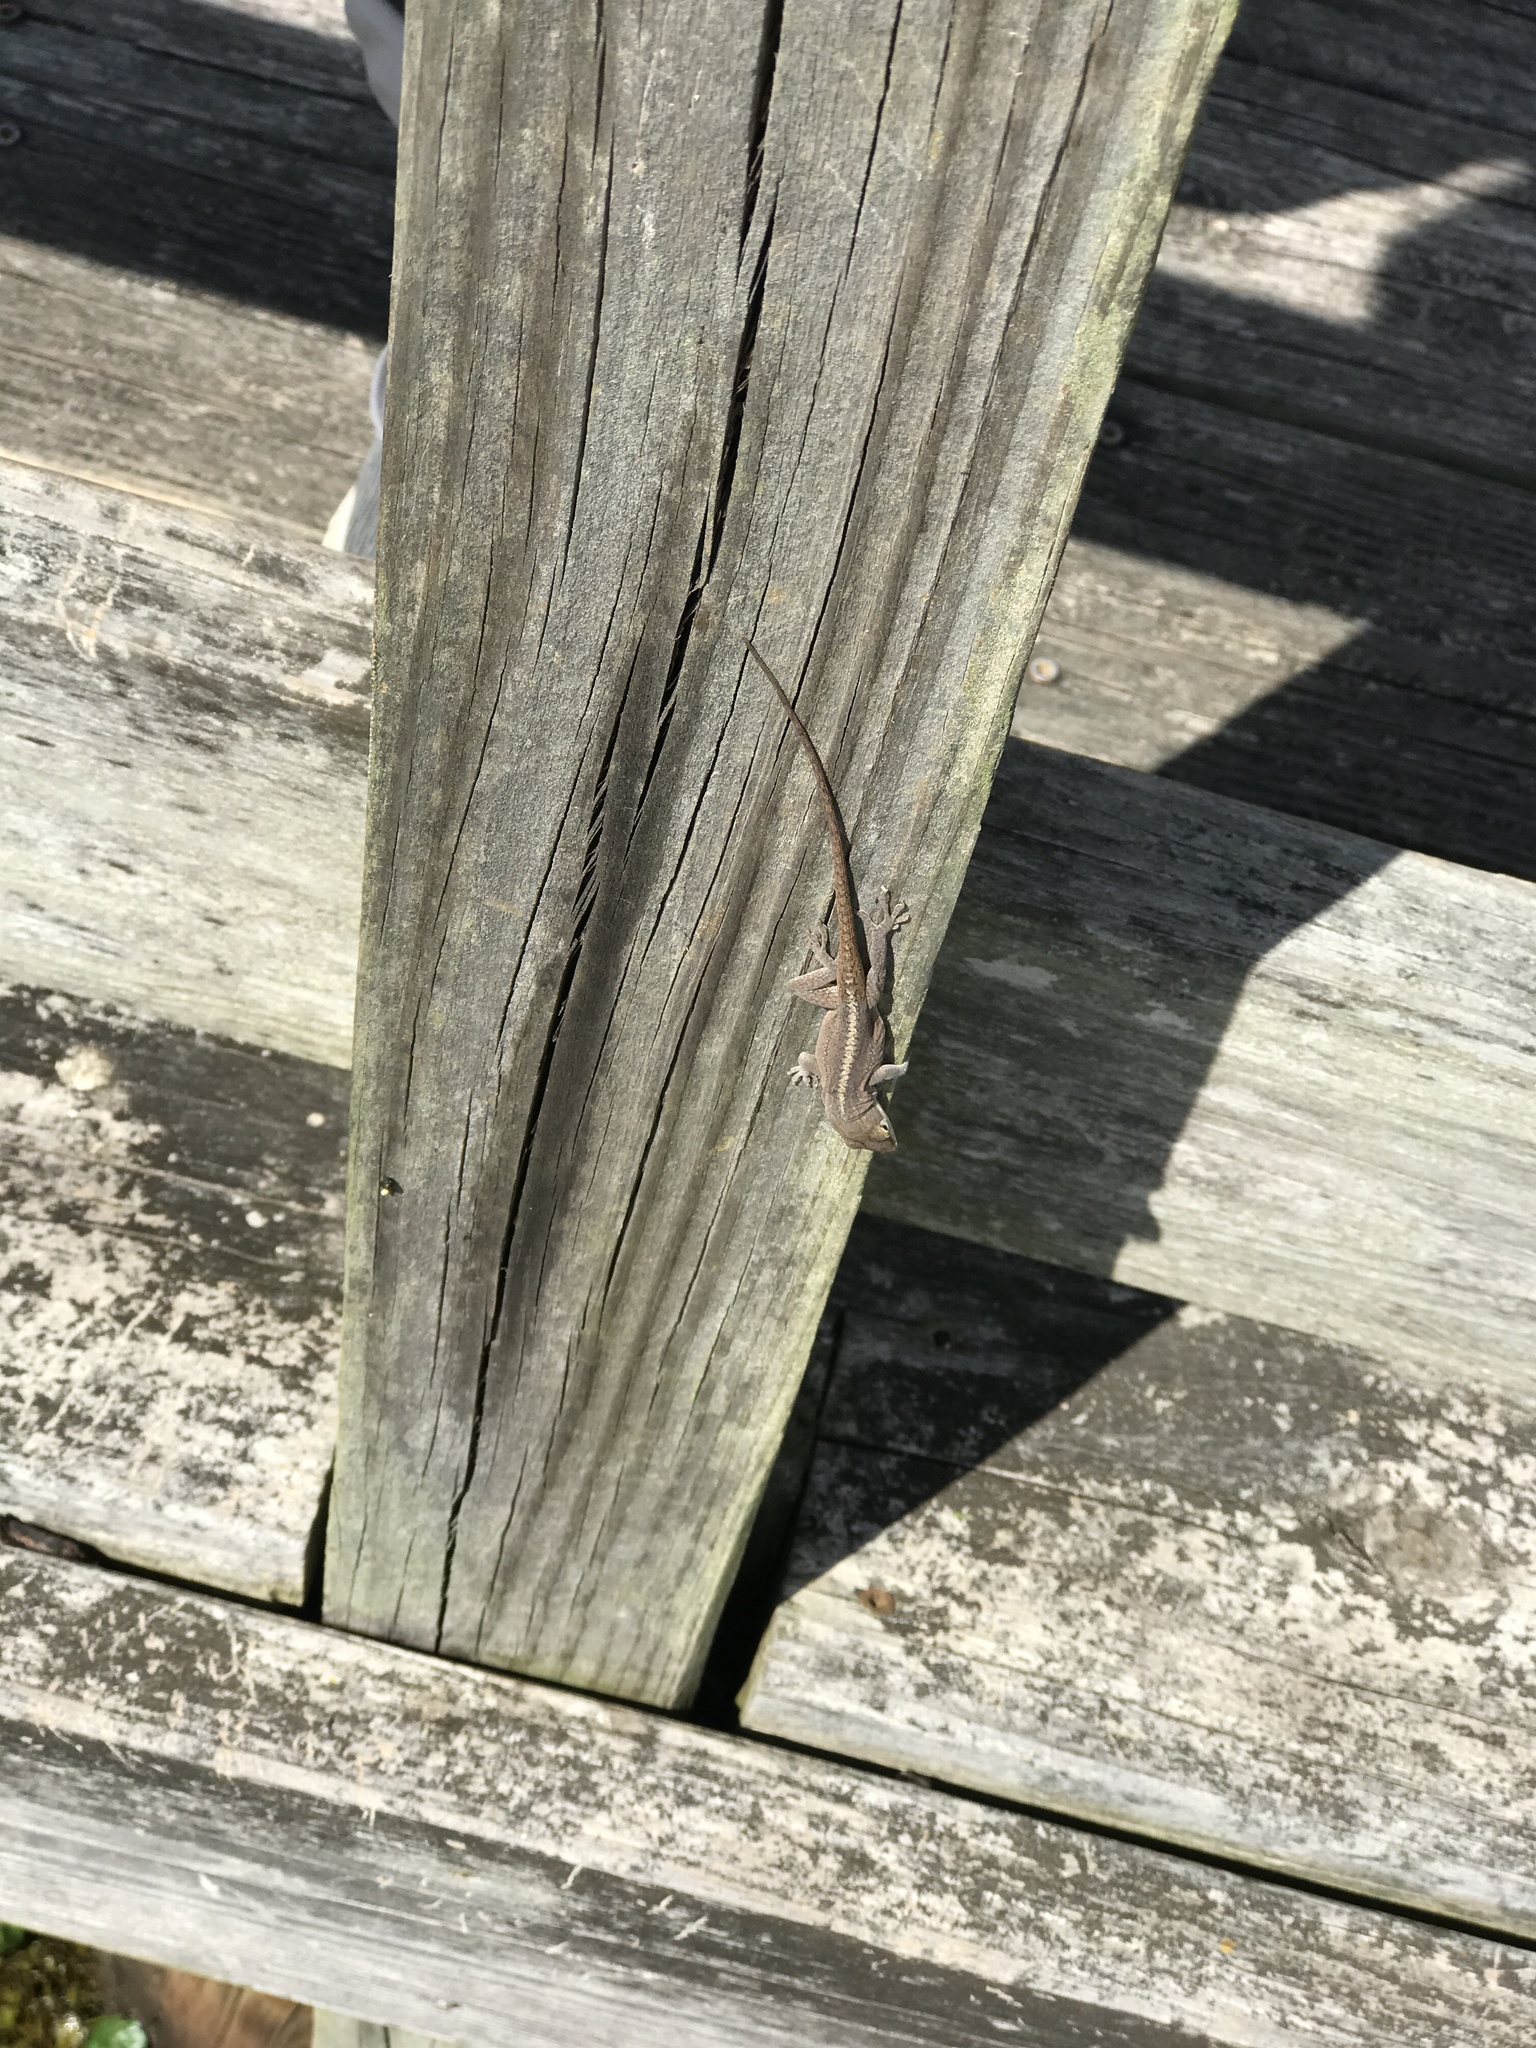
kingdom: Animalia
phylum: Chordata
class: Squamata
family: Dactyloidae
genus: Anolis
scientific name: Anolis carolinensis
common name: Green anole
